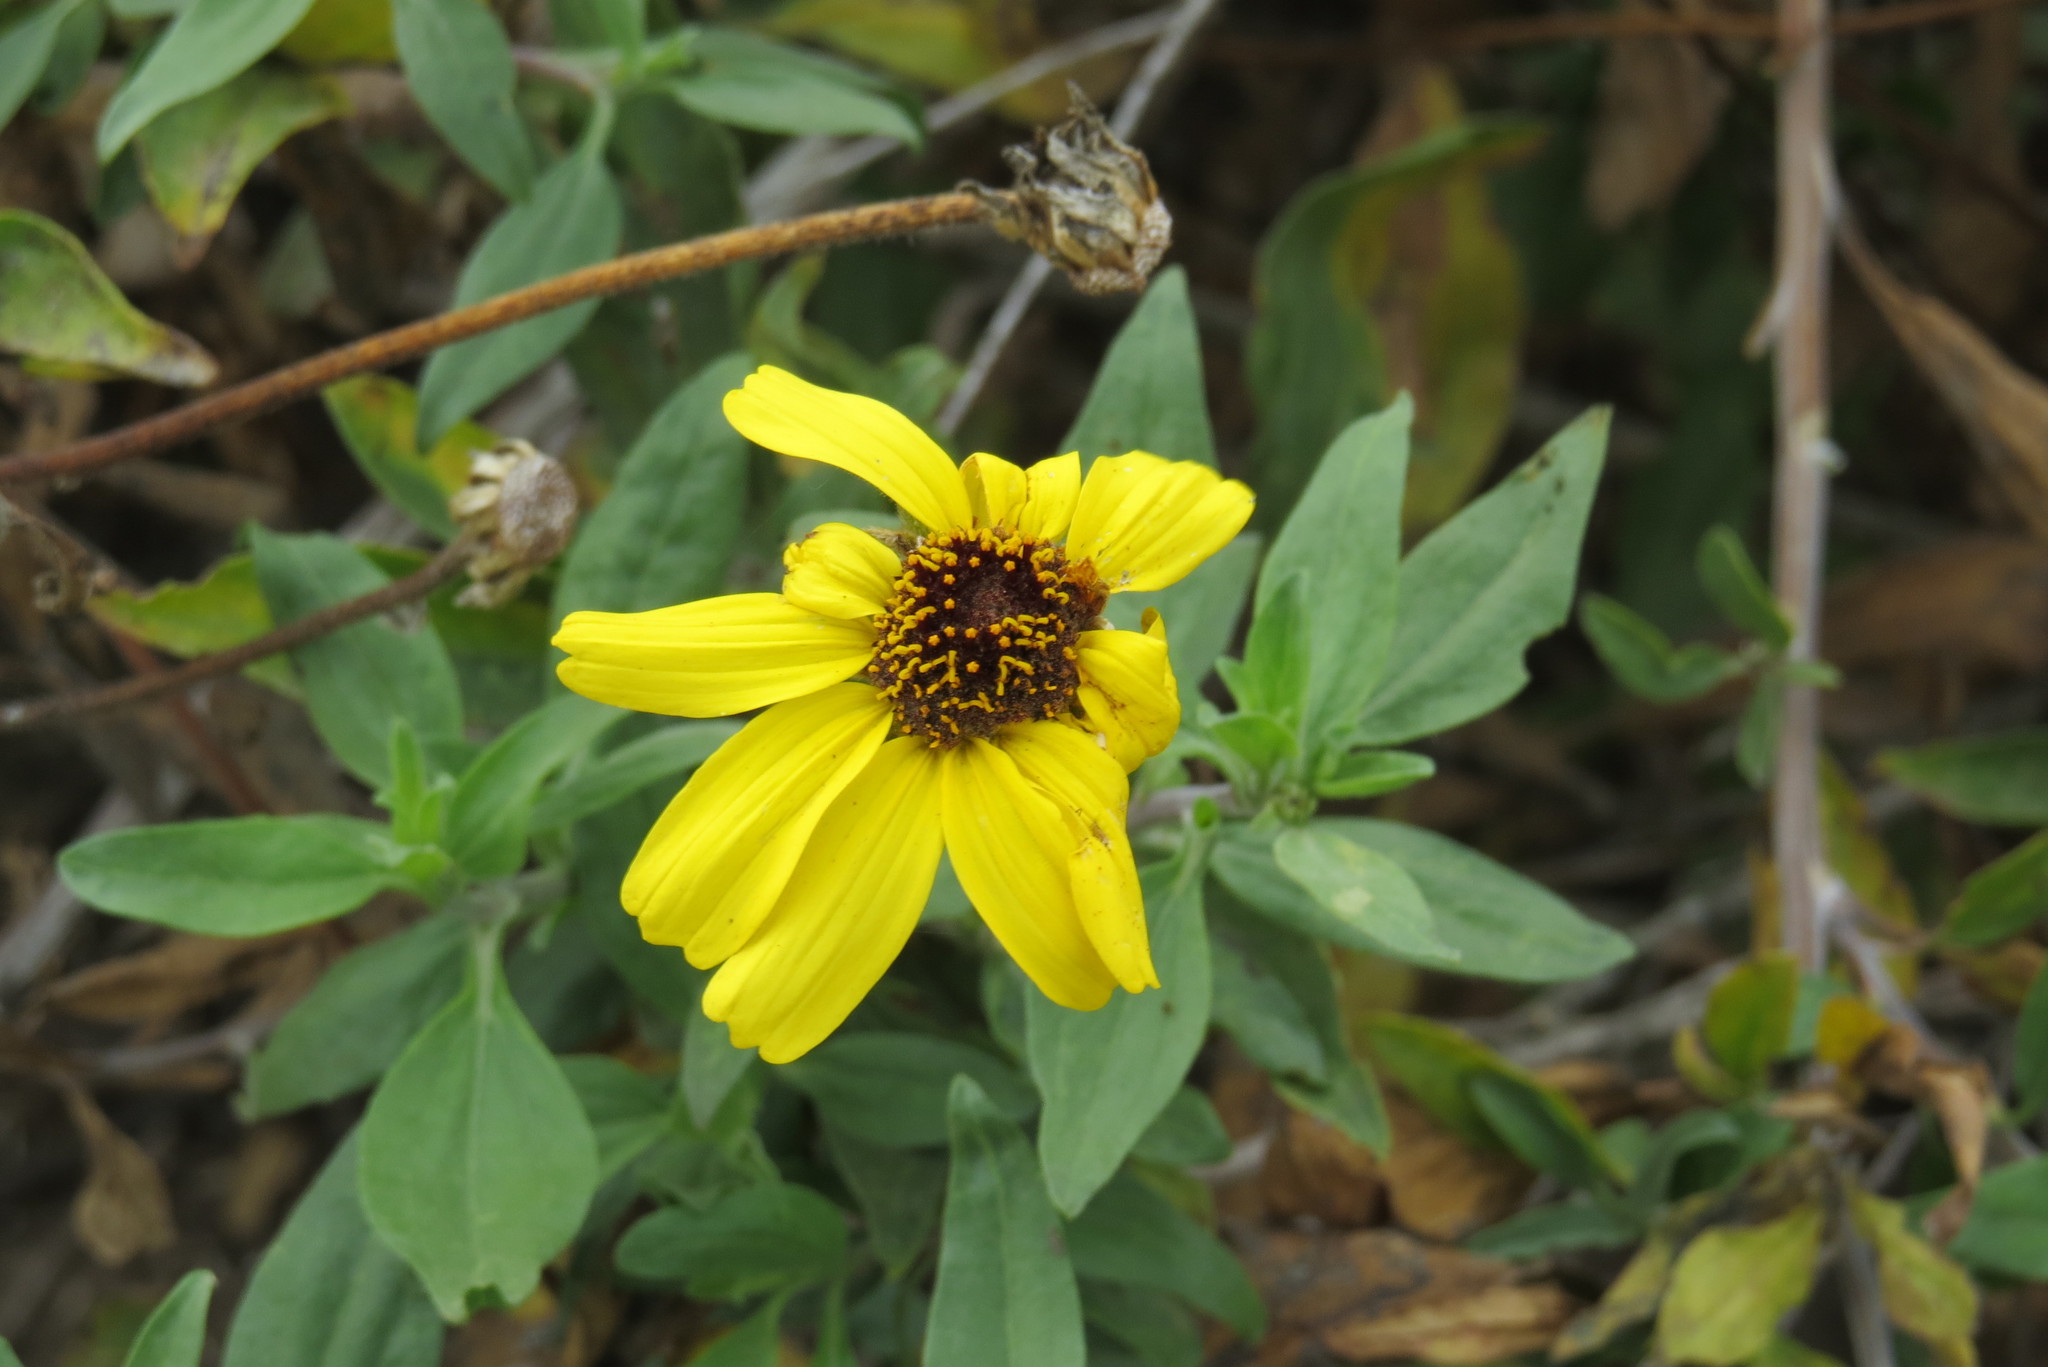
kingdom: Plantae
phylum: Tracheophyta
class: Magnoliopsida
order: Asterales
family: Asteraceae
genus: Encelia
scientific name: Encelia californica
